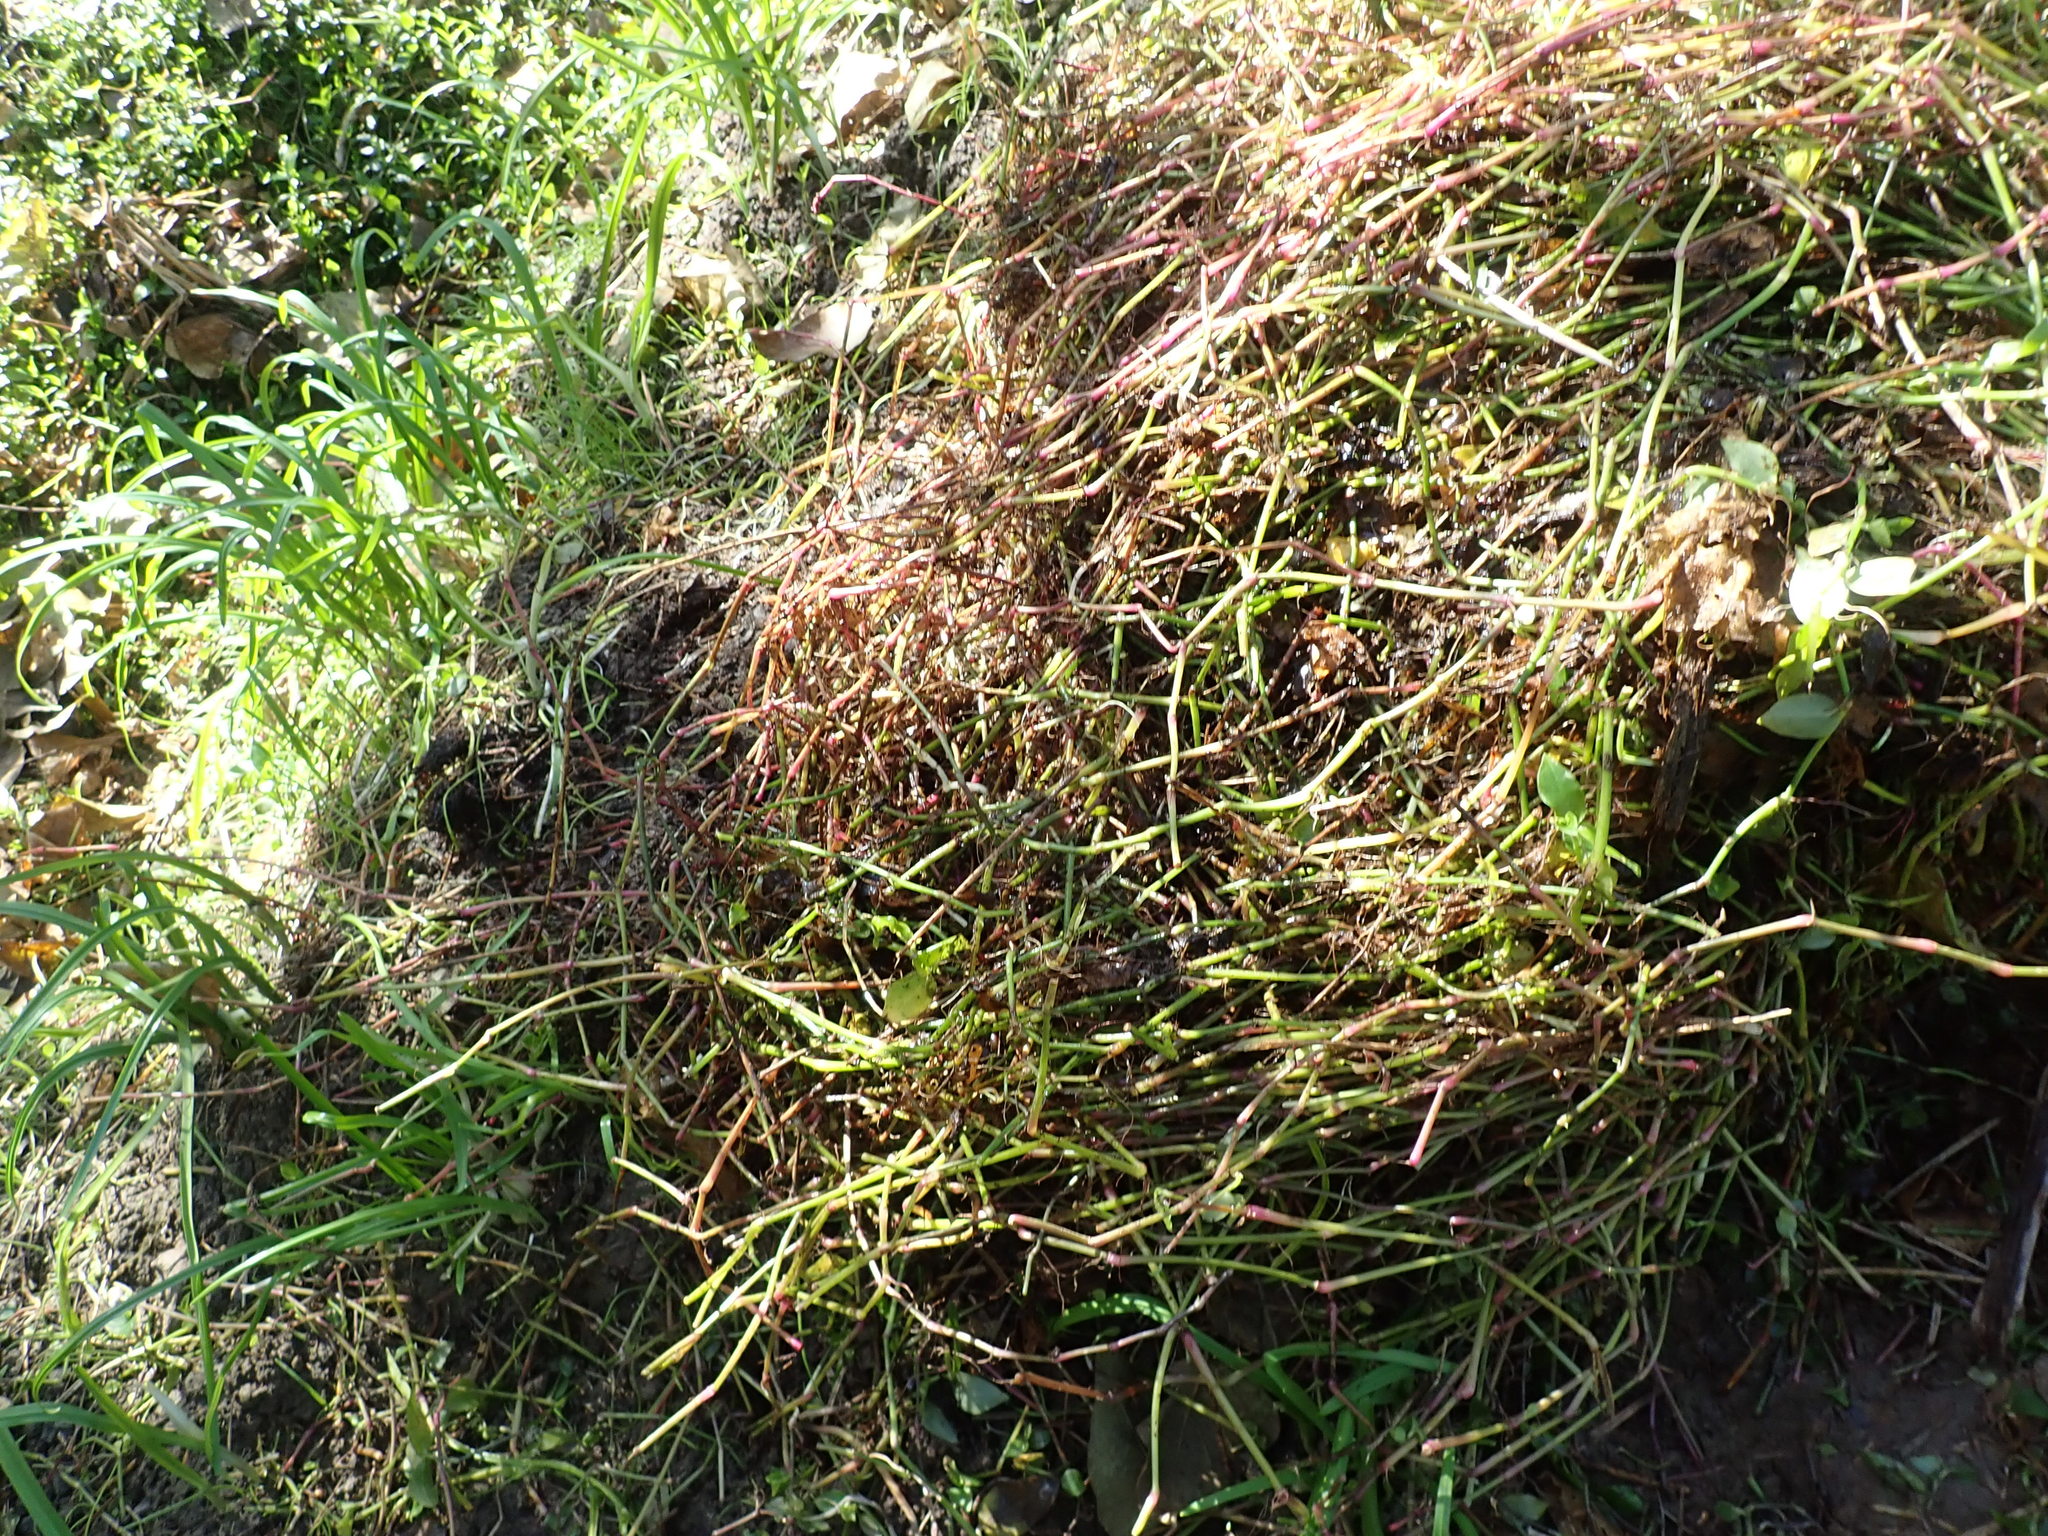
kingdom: Plantae
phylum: Tracheophyta
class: Liliopsida
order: Commelinales
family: Commelinaceae
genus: Tradescantia
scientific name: Tradescantia fluminensis
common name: Wandering-jew
